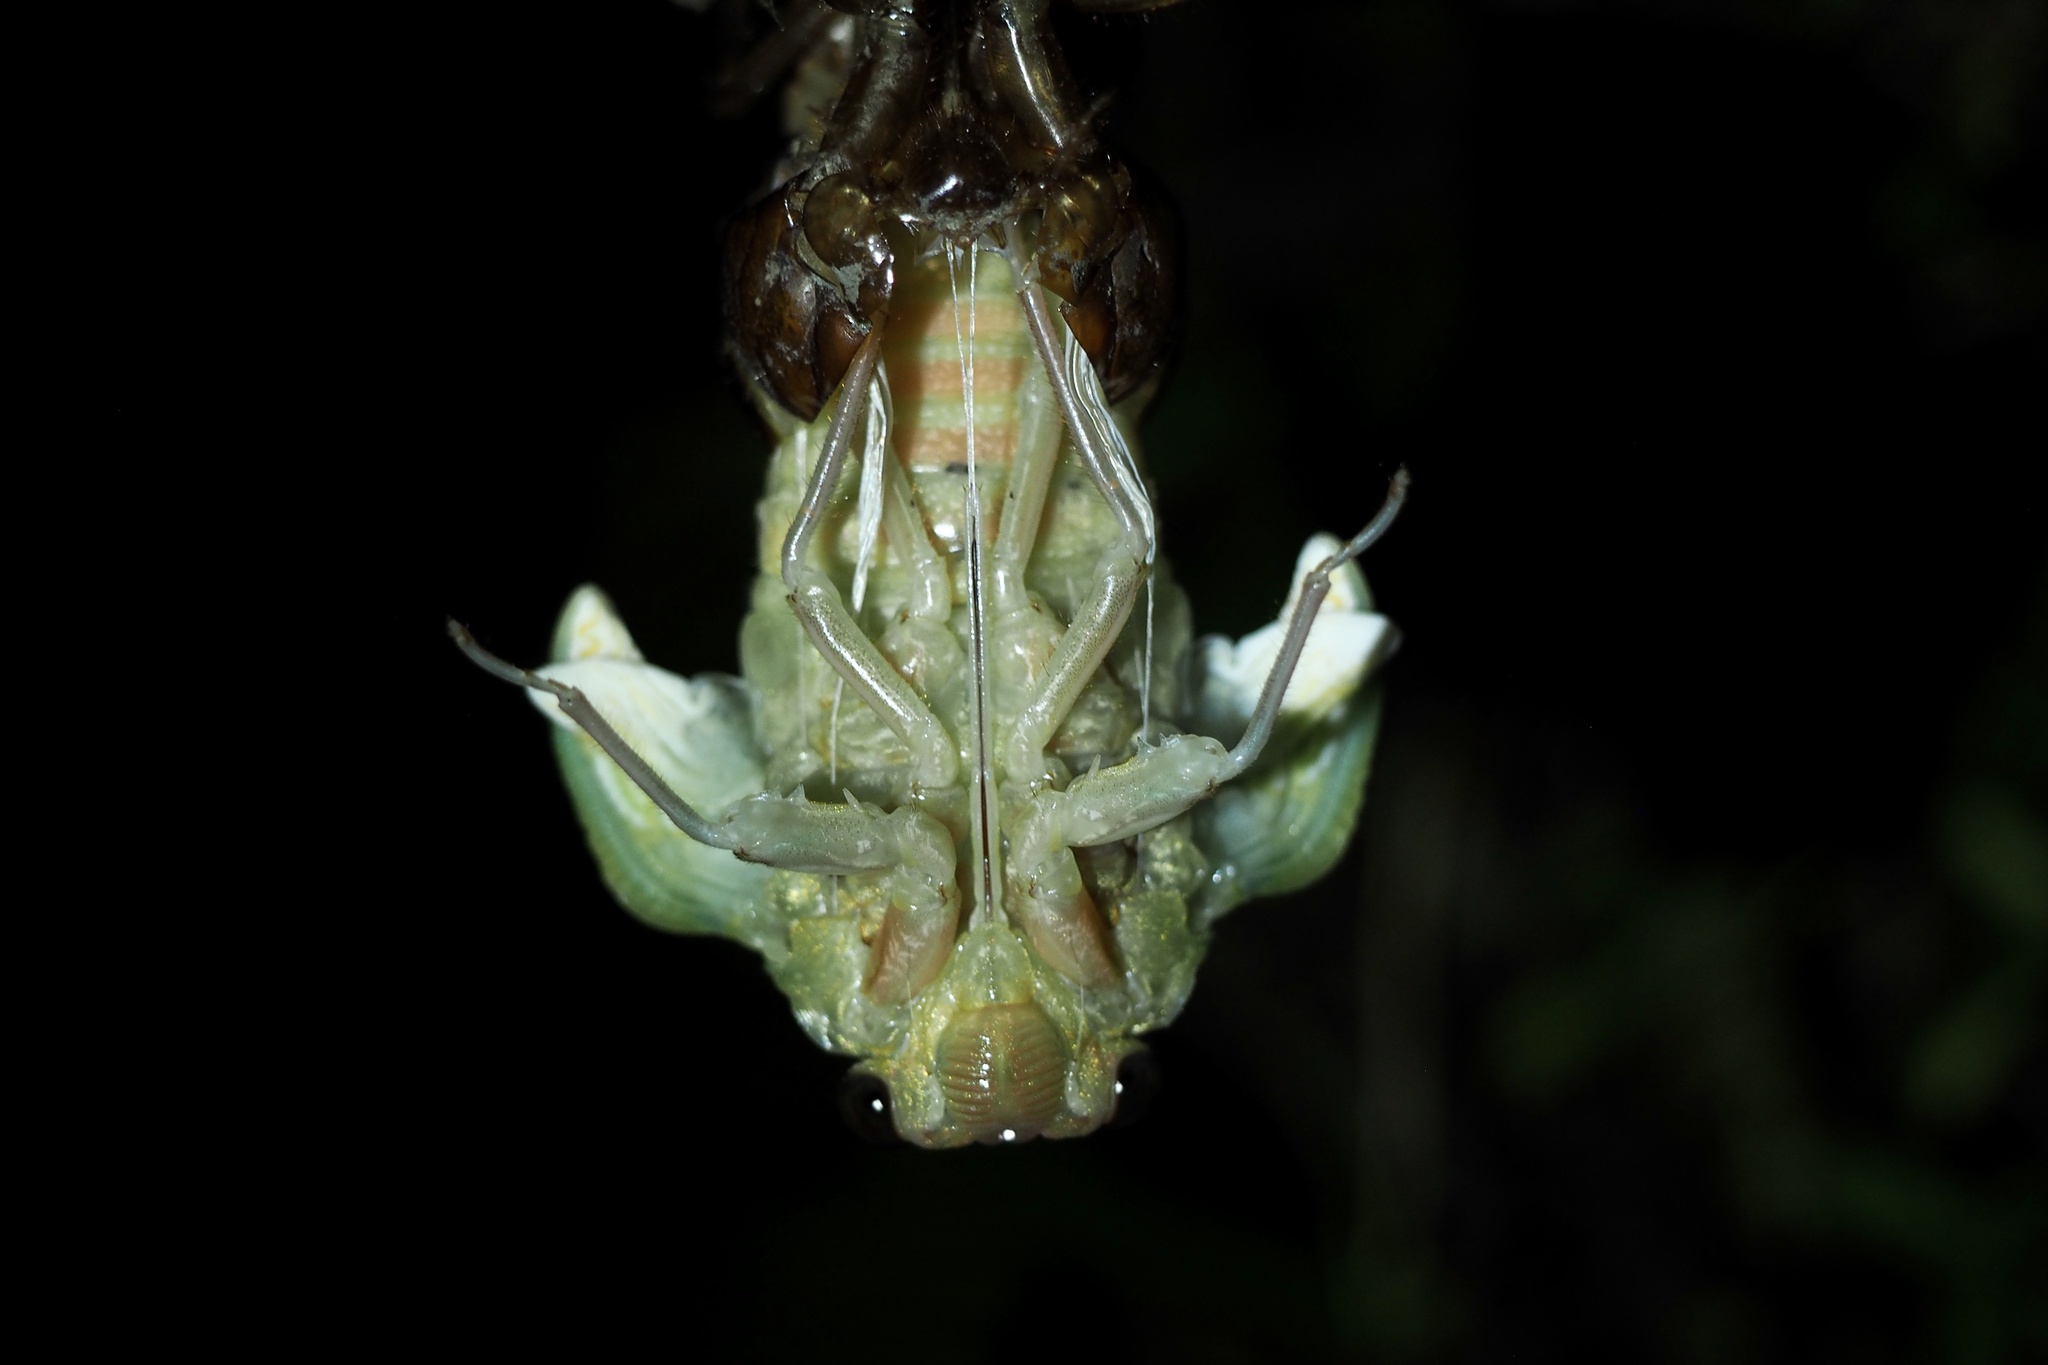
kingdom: Animalia
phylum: Arthropoda
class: Insecta
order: Hemiptera
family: Cicadidae
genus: Graptopsaltria
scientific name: Graptopsaltria nigrofuscata
